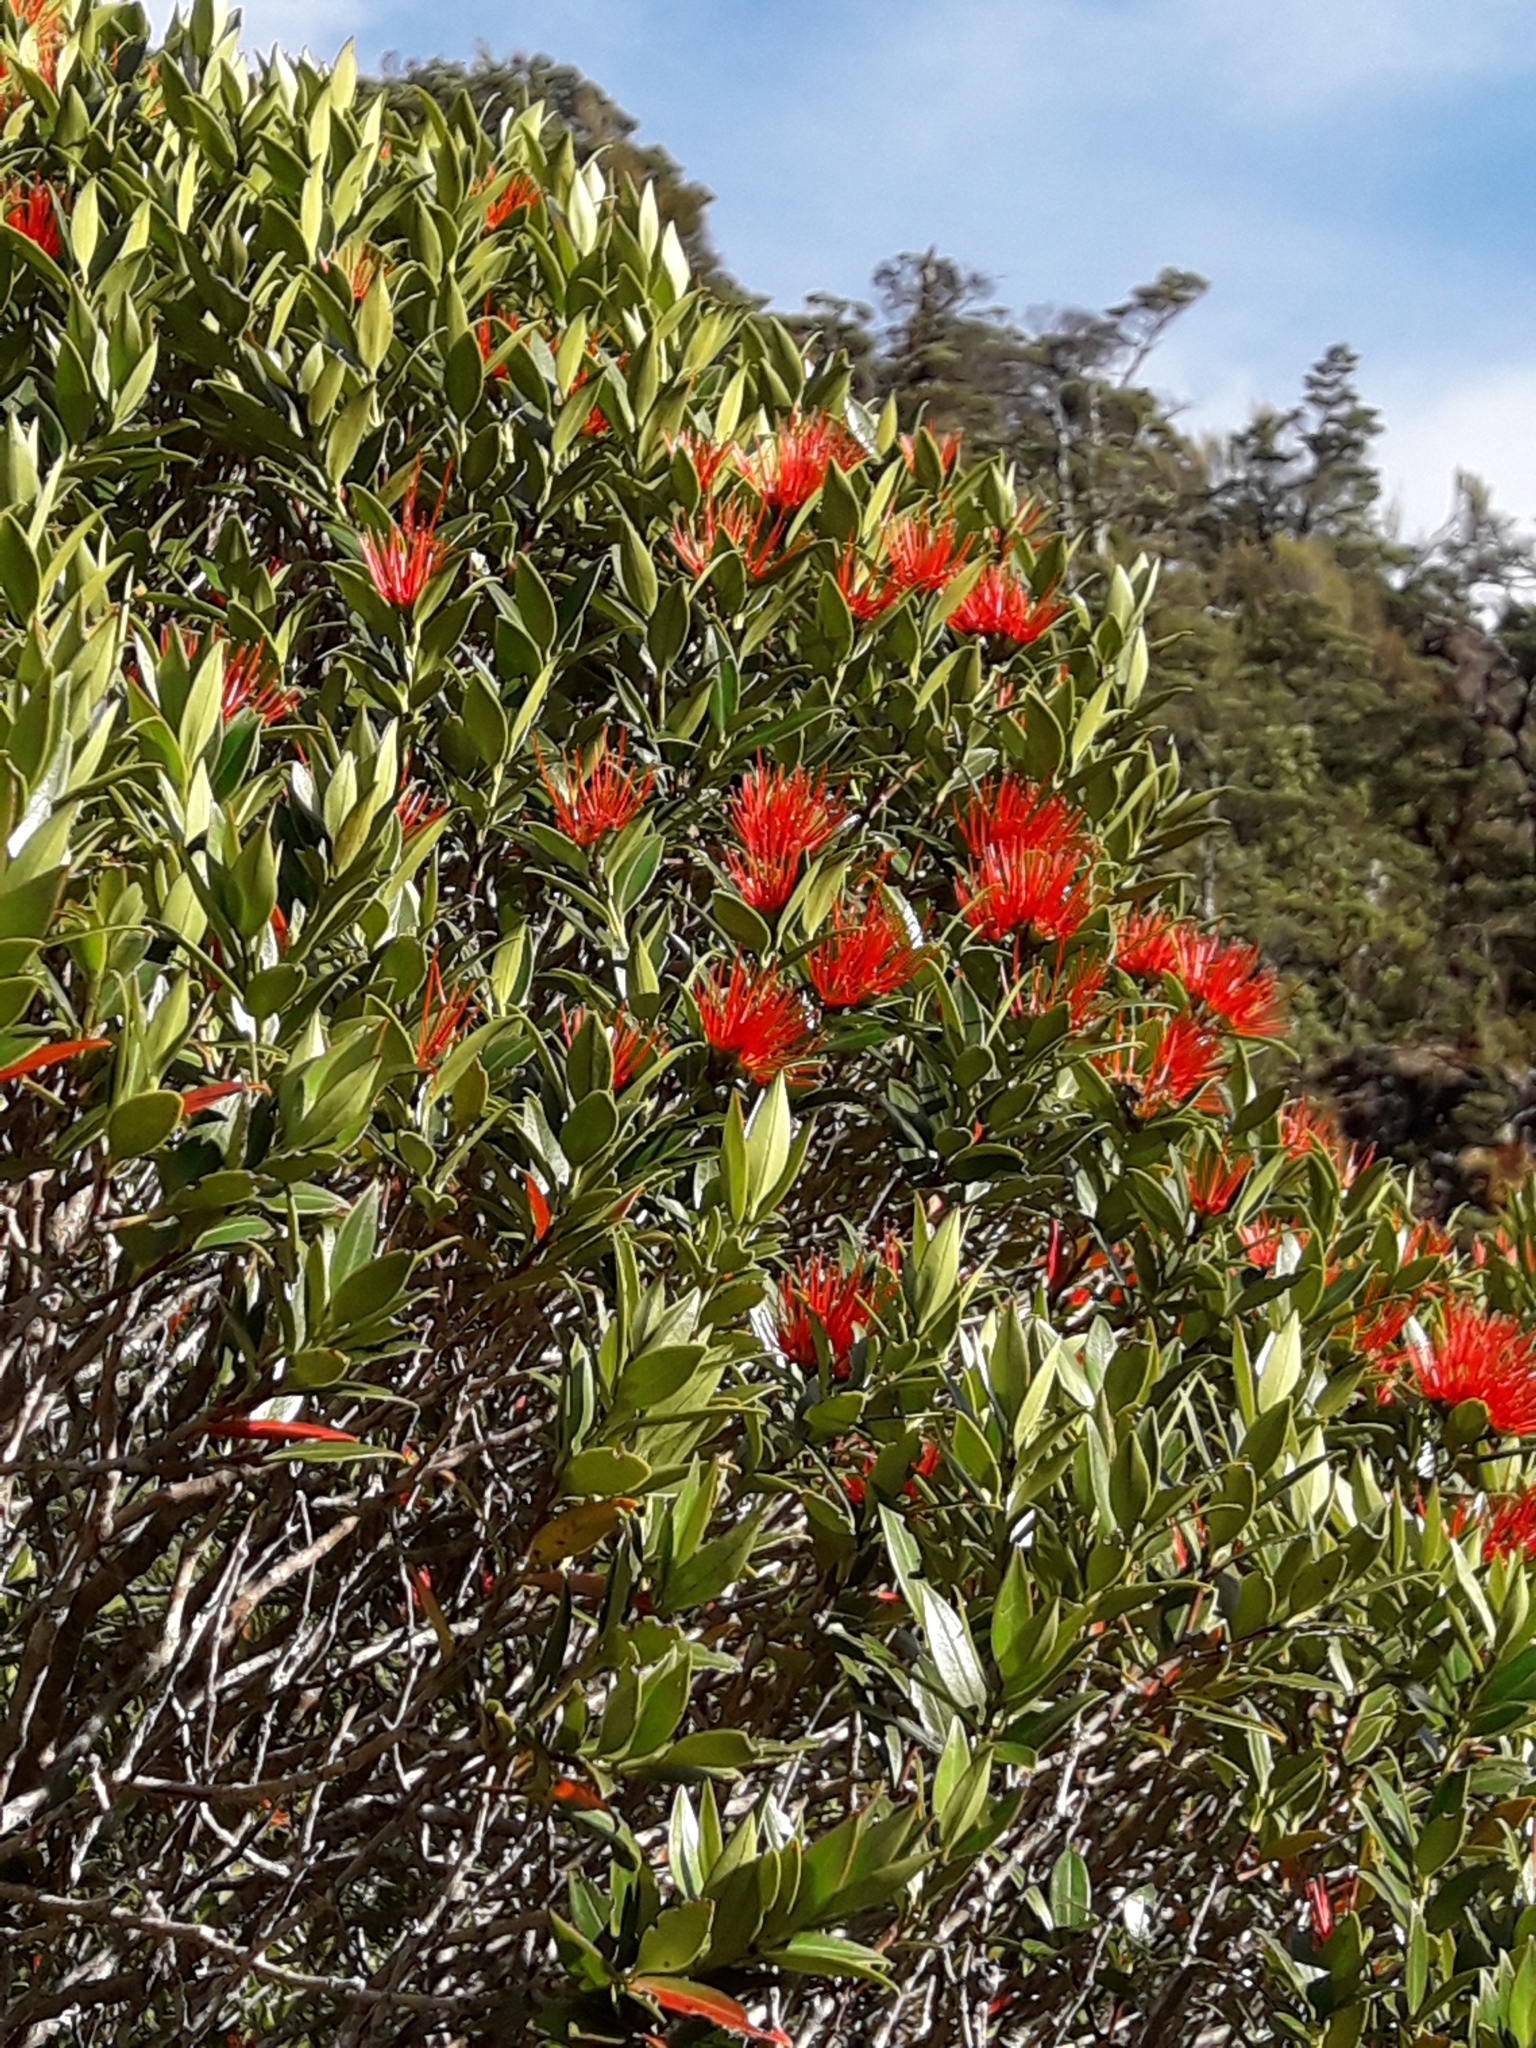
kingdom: Plantae
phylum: Tracheophyta
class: Magnoliopsida
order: Myrtales
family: Myrtaceae
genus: Metrosideros
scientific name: Metrosideros umbellata
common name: Southern rata
